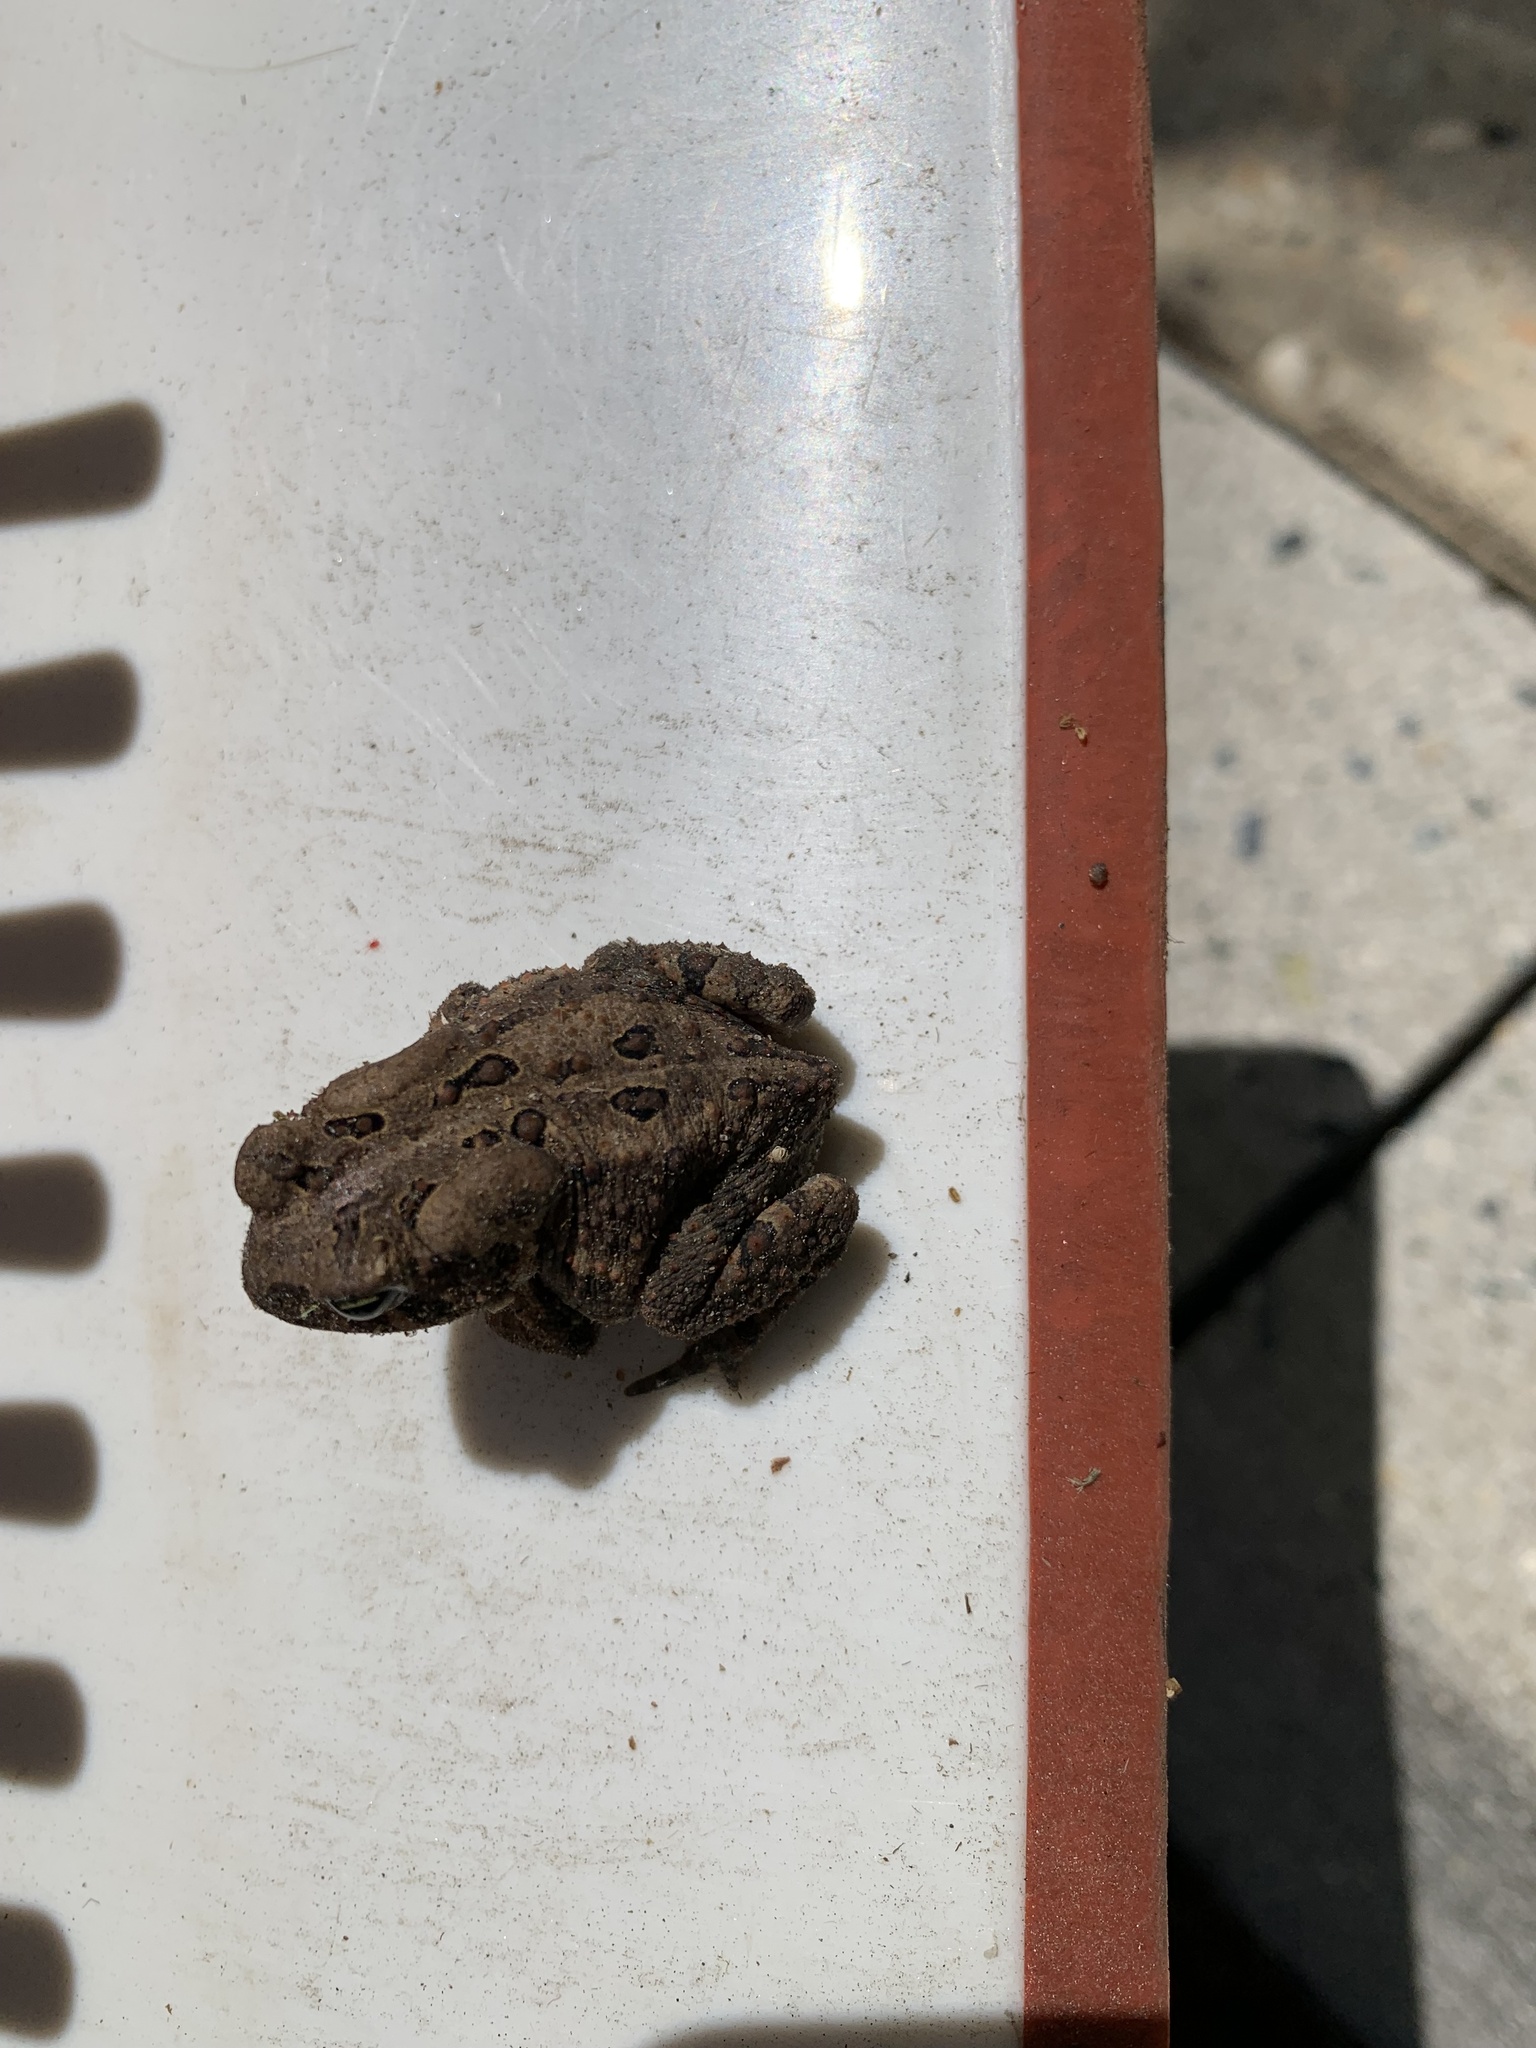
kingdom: Animalia
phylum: Chordata
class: Amphibia
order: Anura
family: Bufonidae
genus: Anaxyrus
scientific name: Anaxyrus americanus
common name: American toad
